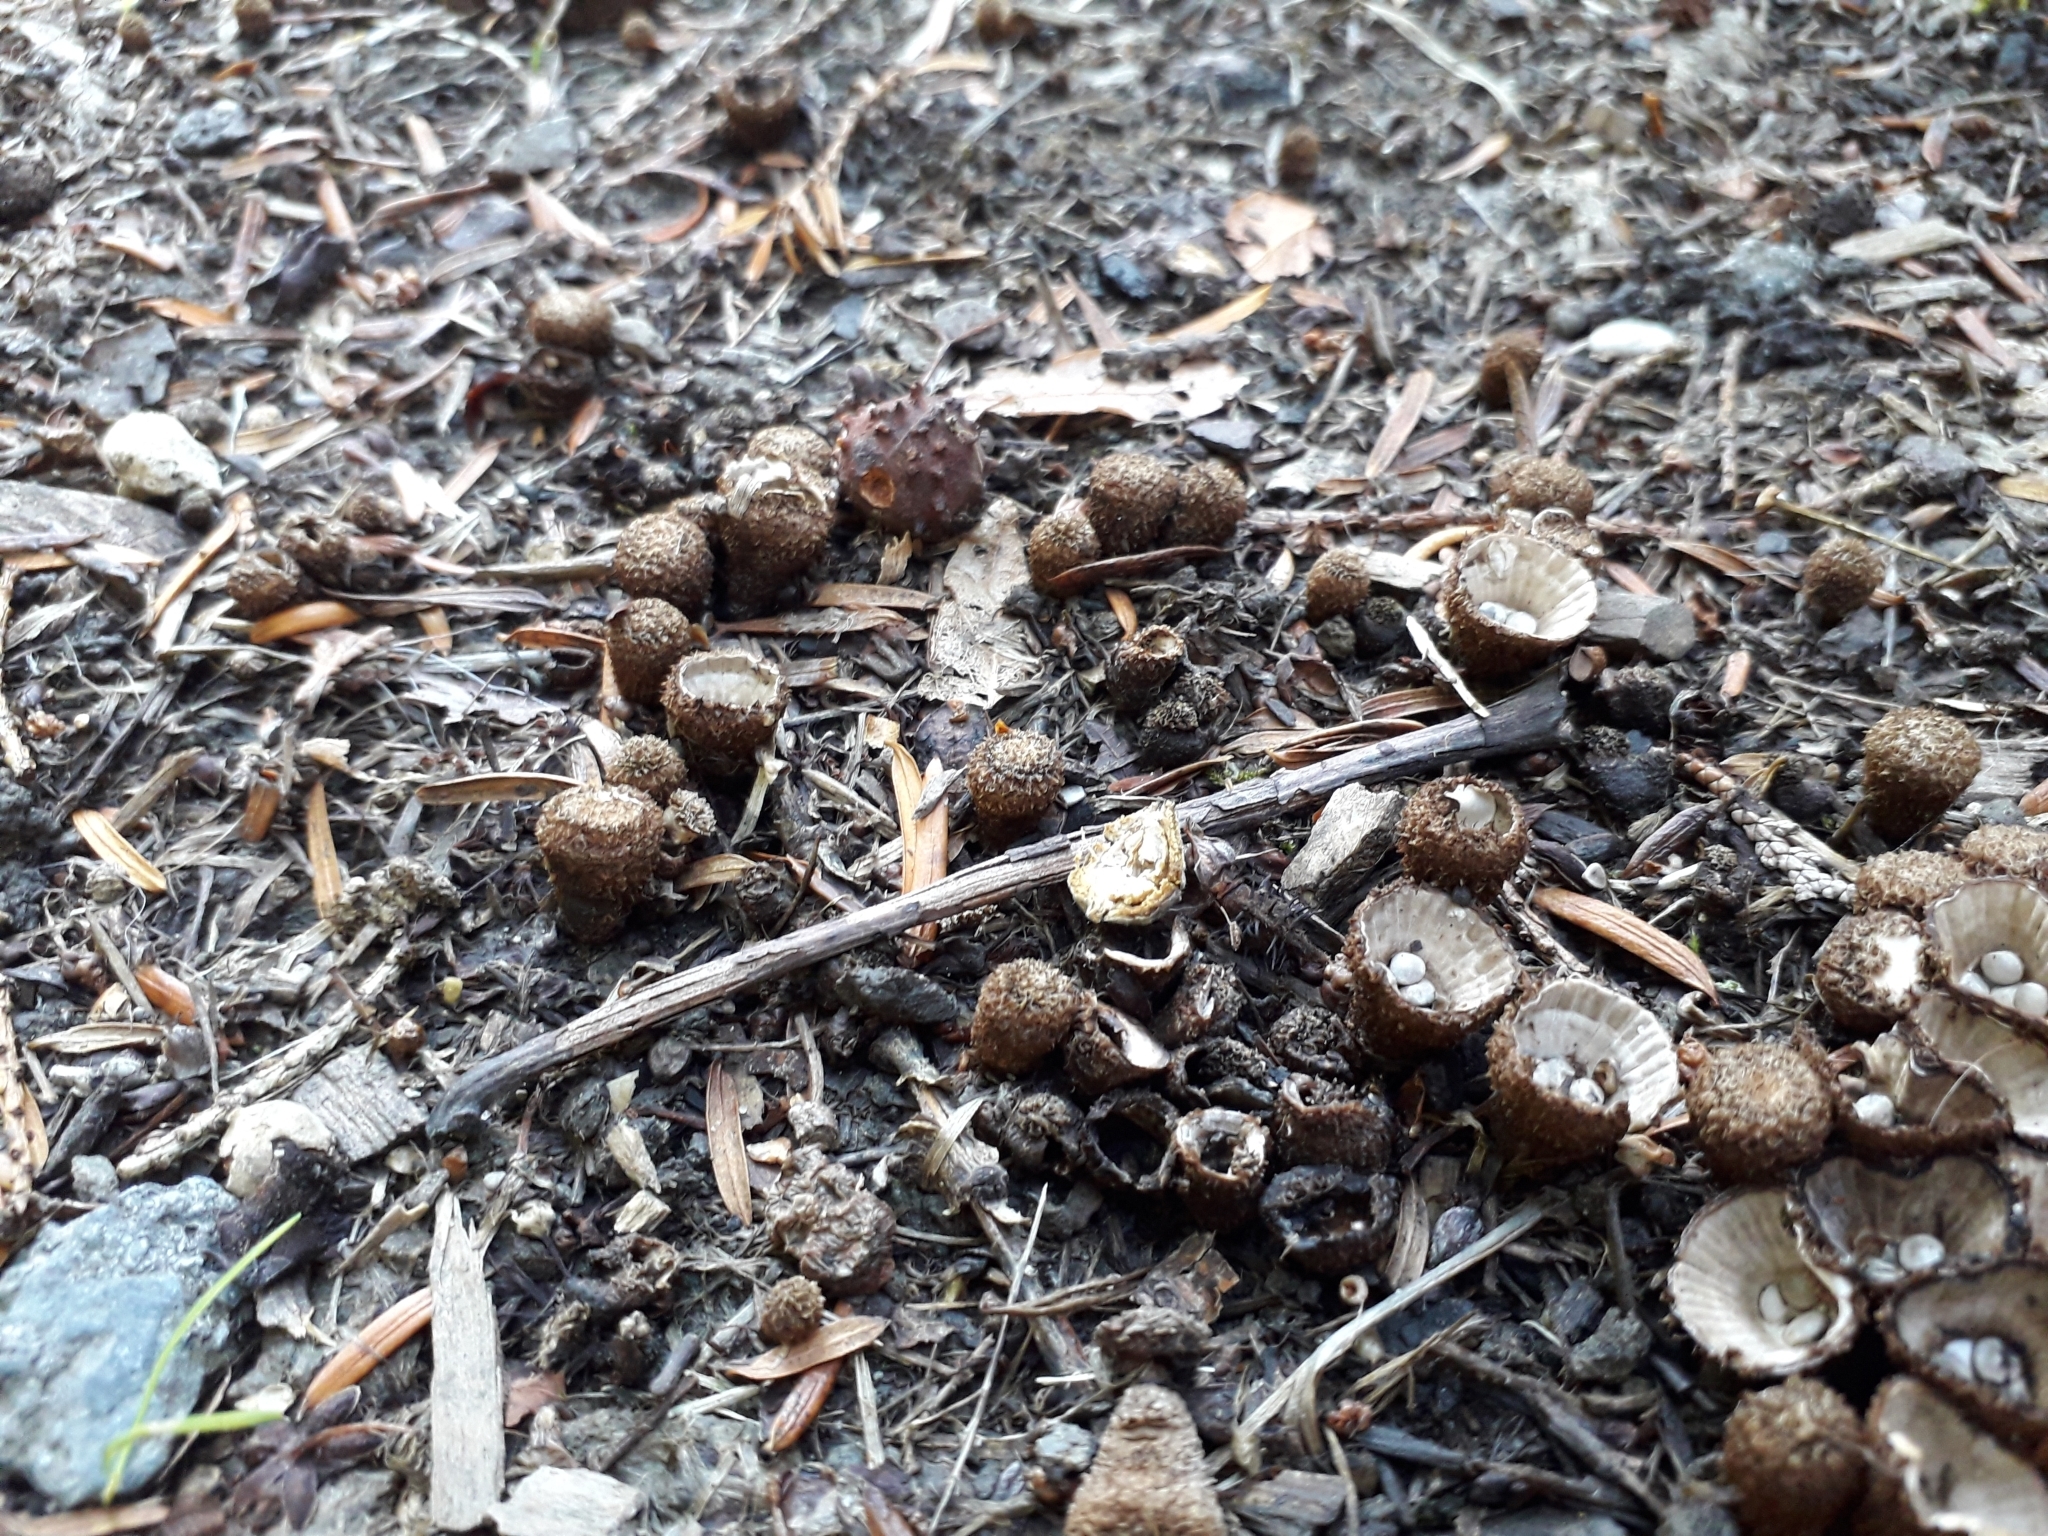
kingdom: Fungi
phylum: Basidiomycota
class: Agaricomycetes
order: Agaricales
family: Agaricaceae
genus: Cyathus
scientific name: Cyathus striatus
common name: Fluted bird's nest
